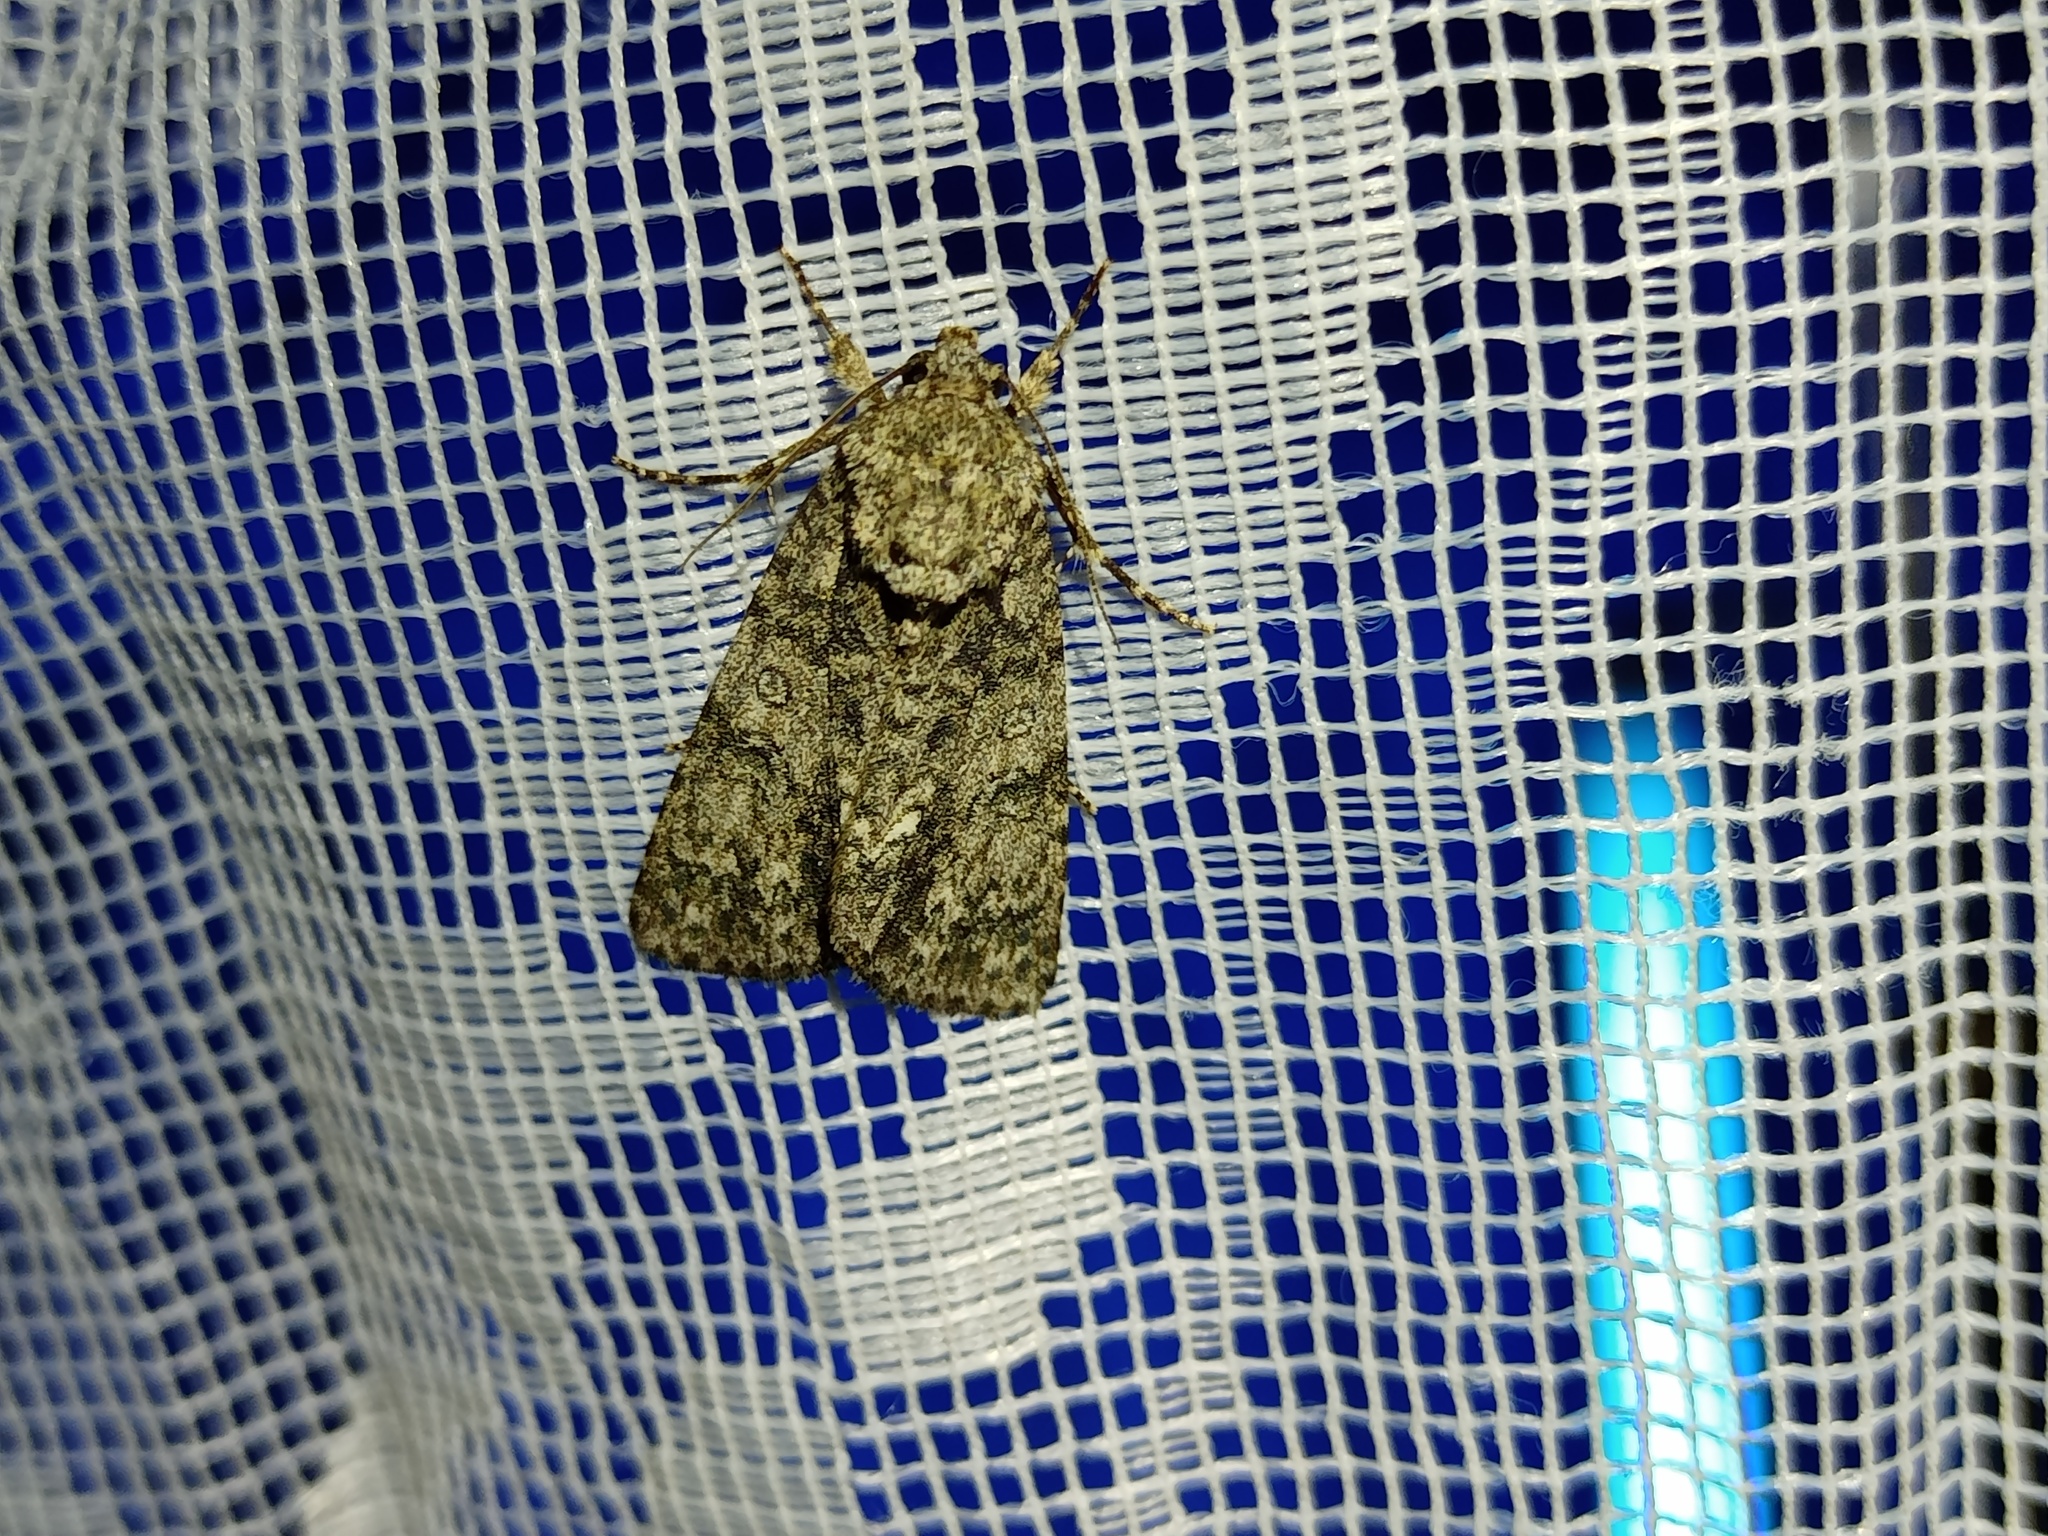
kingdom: Animalia
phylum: Arthropoda
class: Insecta
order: Lepidoptera
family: Noctuidae
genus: Acronicta
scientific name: Acronicta rumicis
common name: Knot grass
